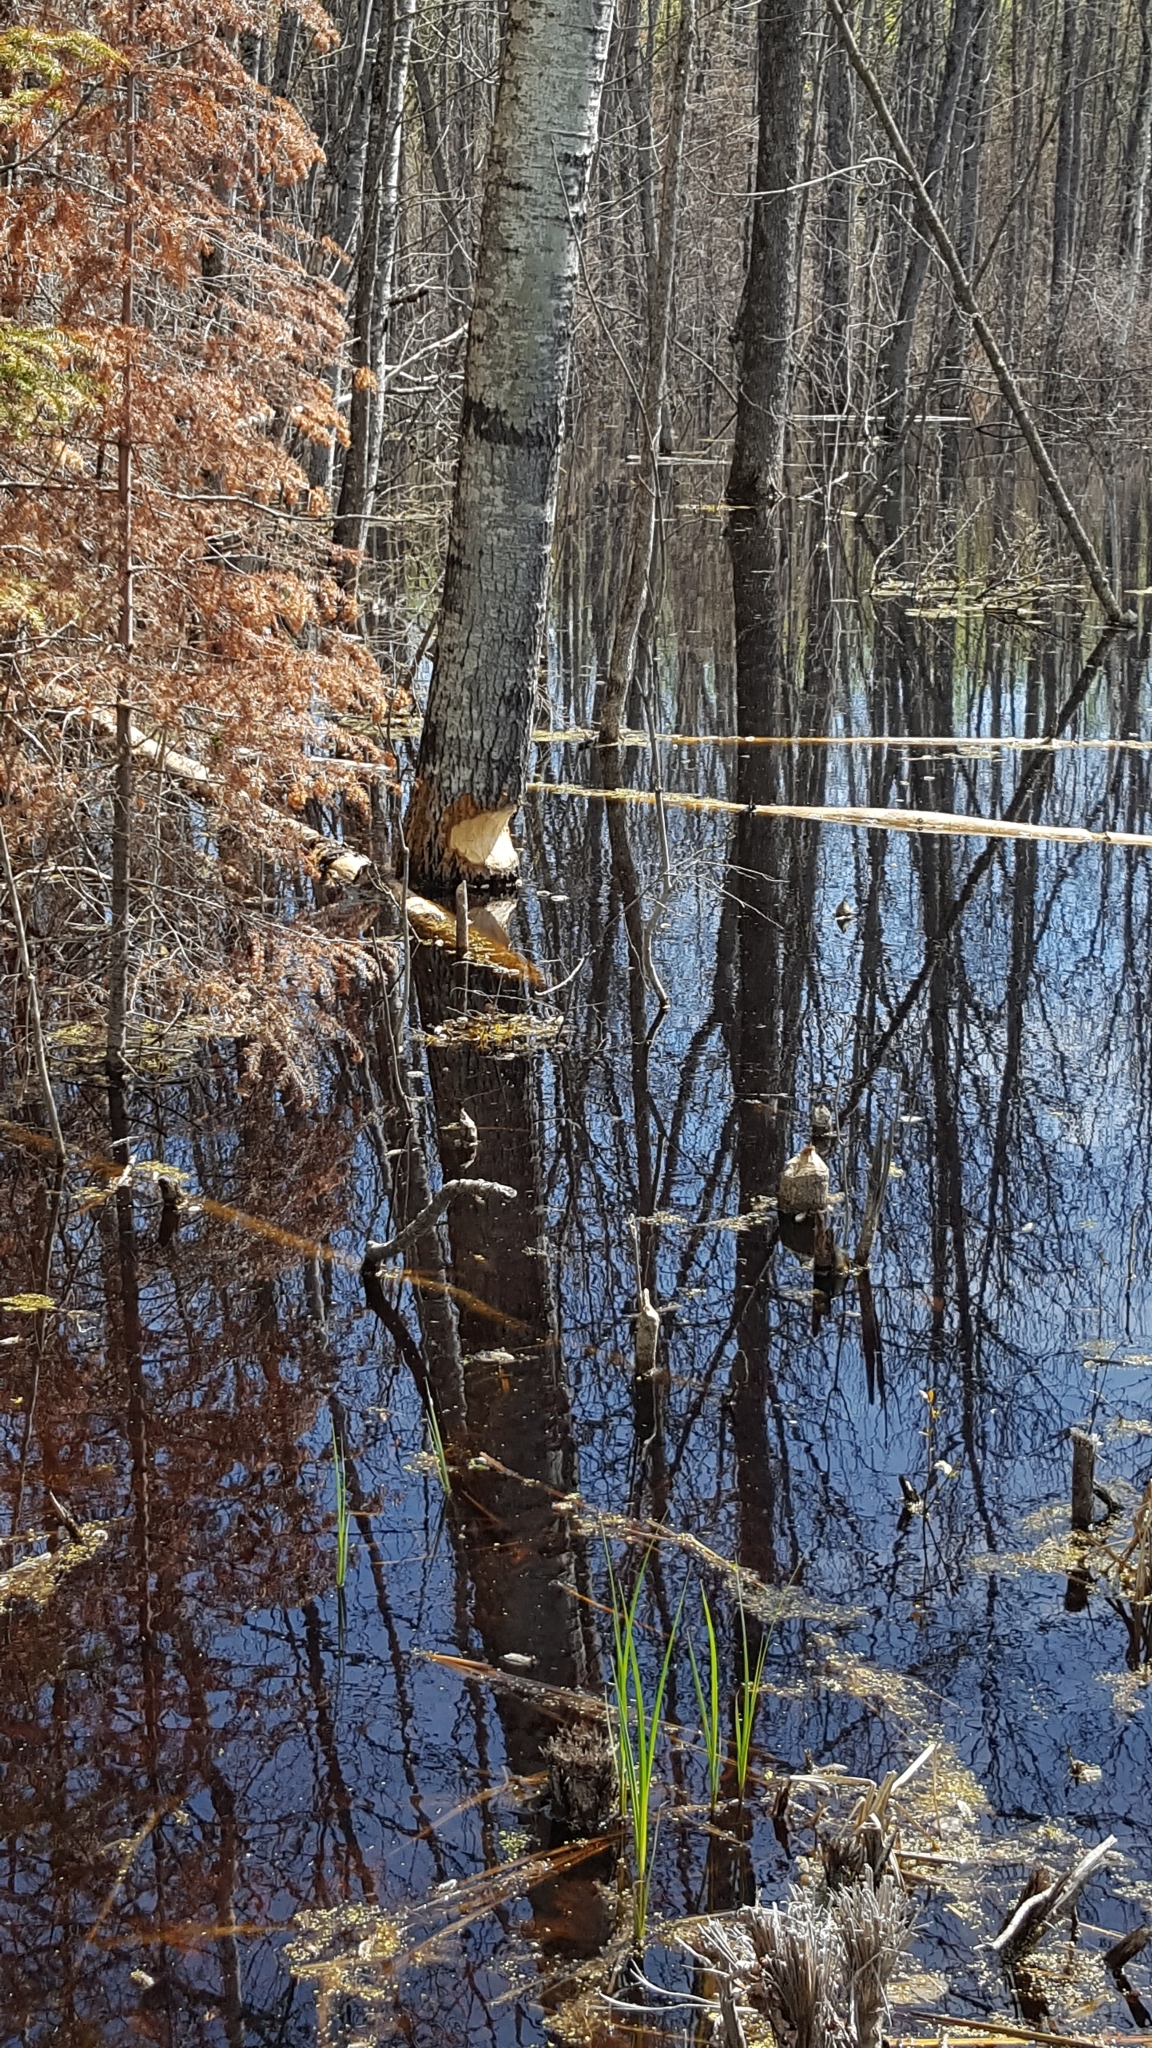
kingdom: Animalia
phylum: Chordata
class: Mammalia
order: Rodentia
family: Castoridae
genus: Castor
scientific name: Castor canadensis
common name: American beaver
